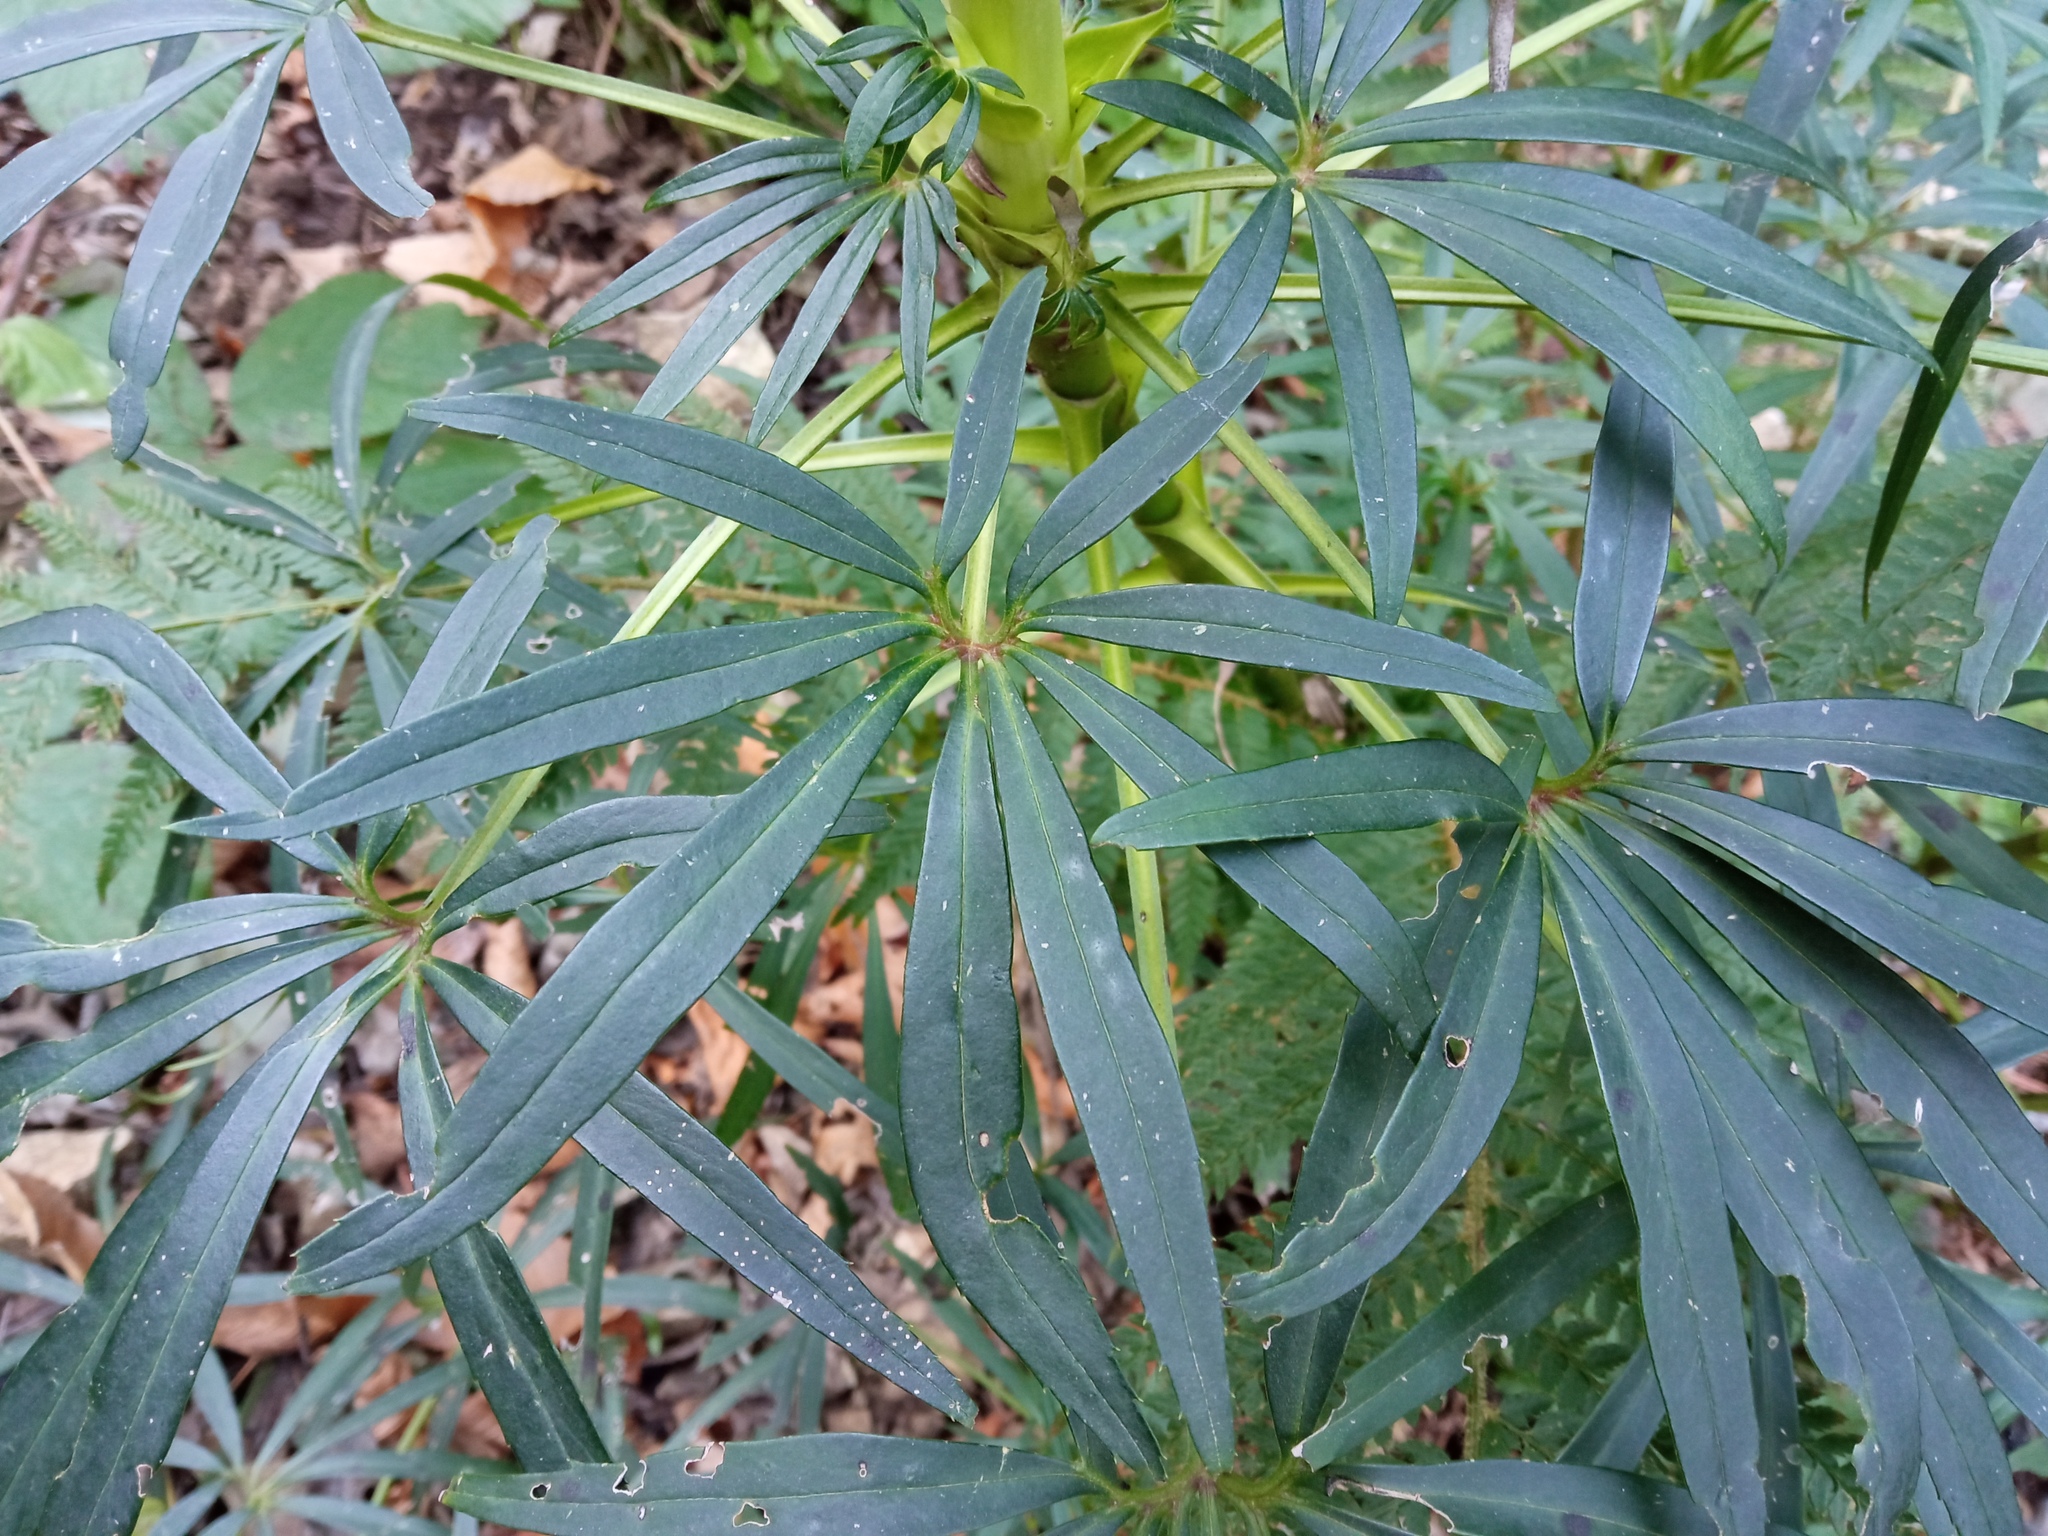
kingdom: Plantae
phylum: Tracheophyta
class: Magnoliopsida
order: Ranunculales
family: Ranunculaceae
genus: Helleborus
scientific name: Helleborus foetidus
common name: Stinking hellebore
